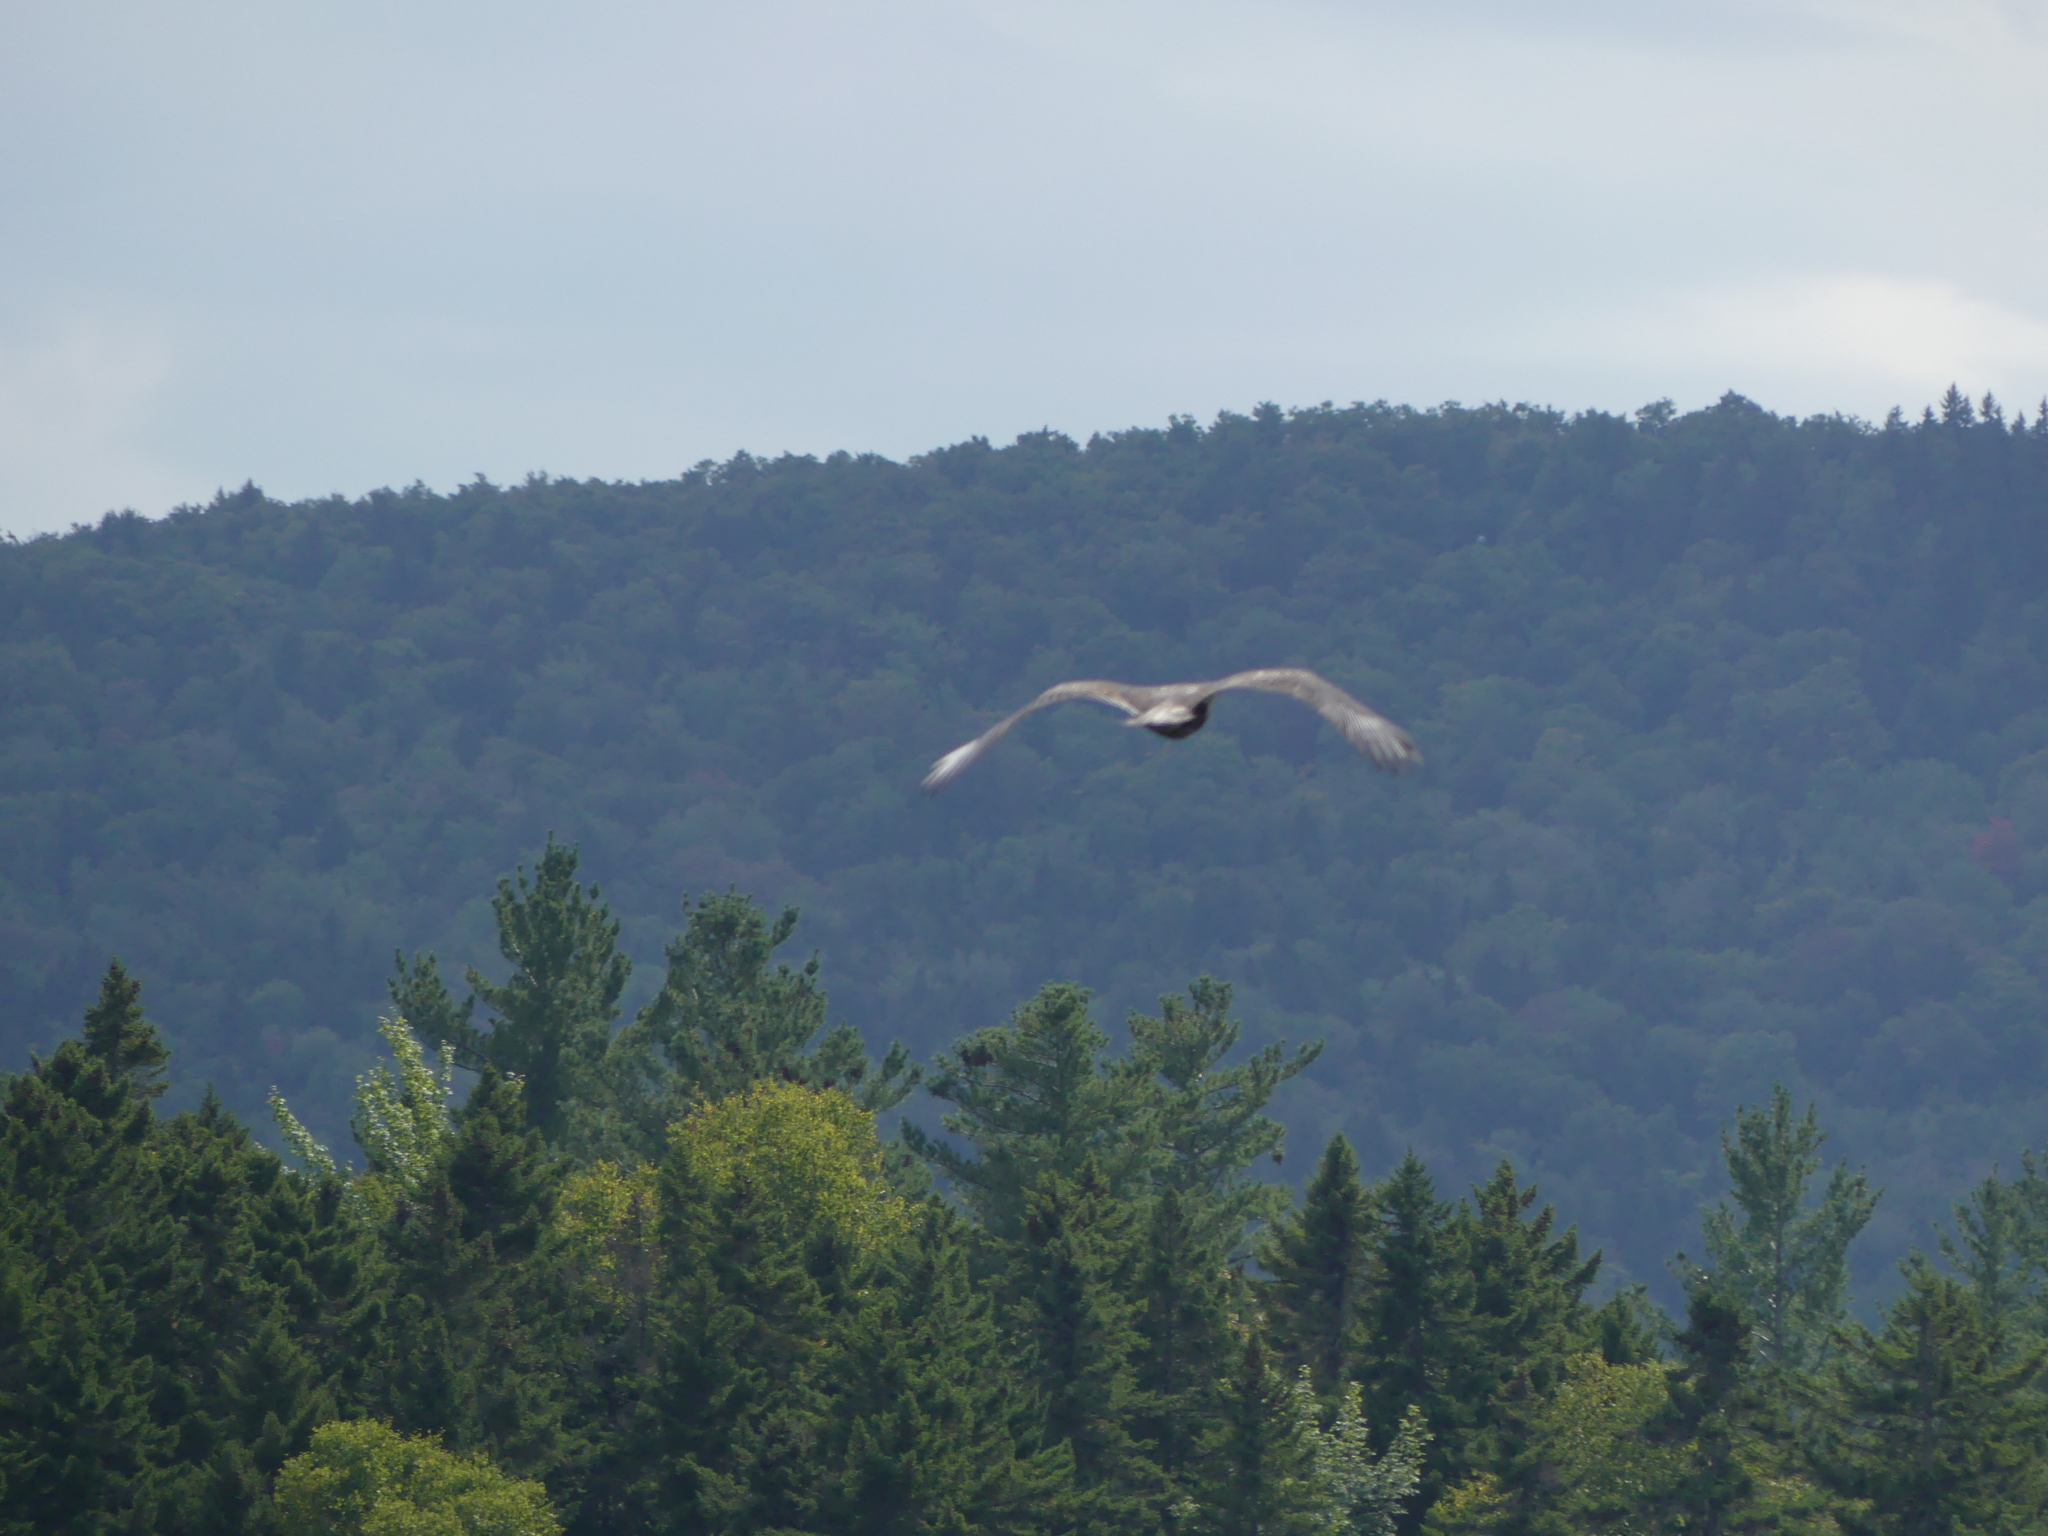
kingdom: Animalia
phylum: Chordata
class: Aves
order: Accipitriformes
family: Accipitridae
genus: Haliaeetus
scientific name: Haliaeetus leucocephalus
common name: Bald eagle
